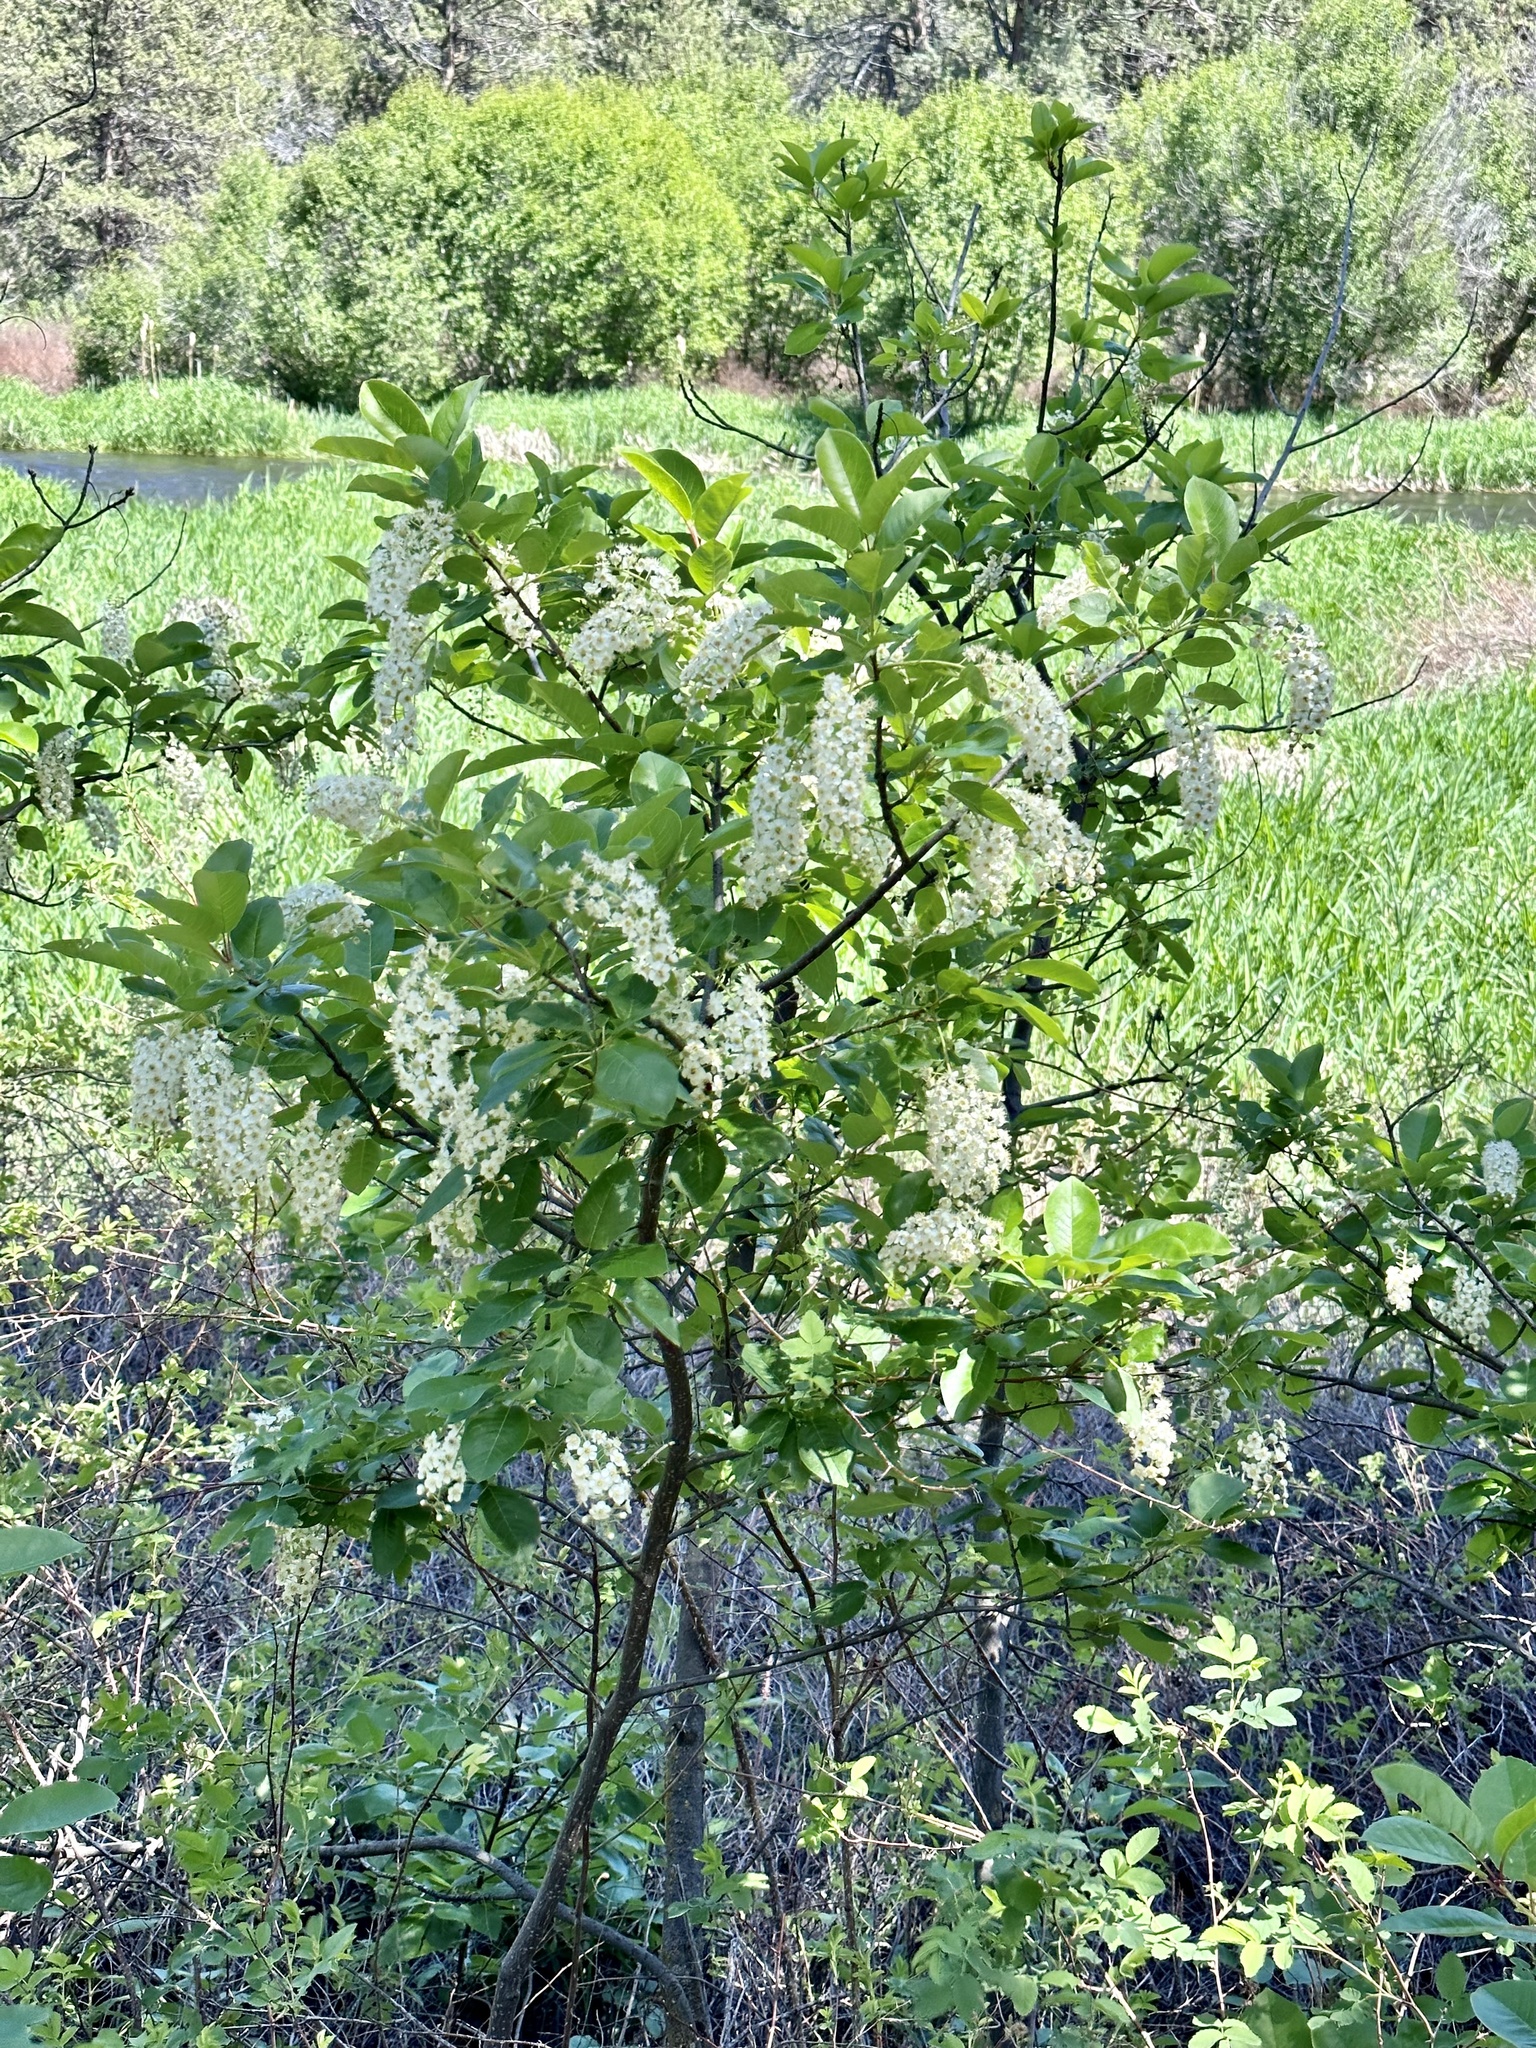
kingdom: Plantae
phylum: Tracheophyta
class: Magnoliopsida
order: Rosales
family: Rosaceae
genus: Prunus
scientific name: Prunus virginiana
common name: Chokecherry
